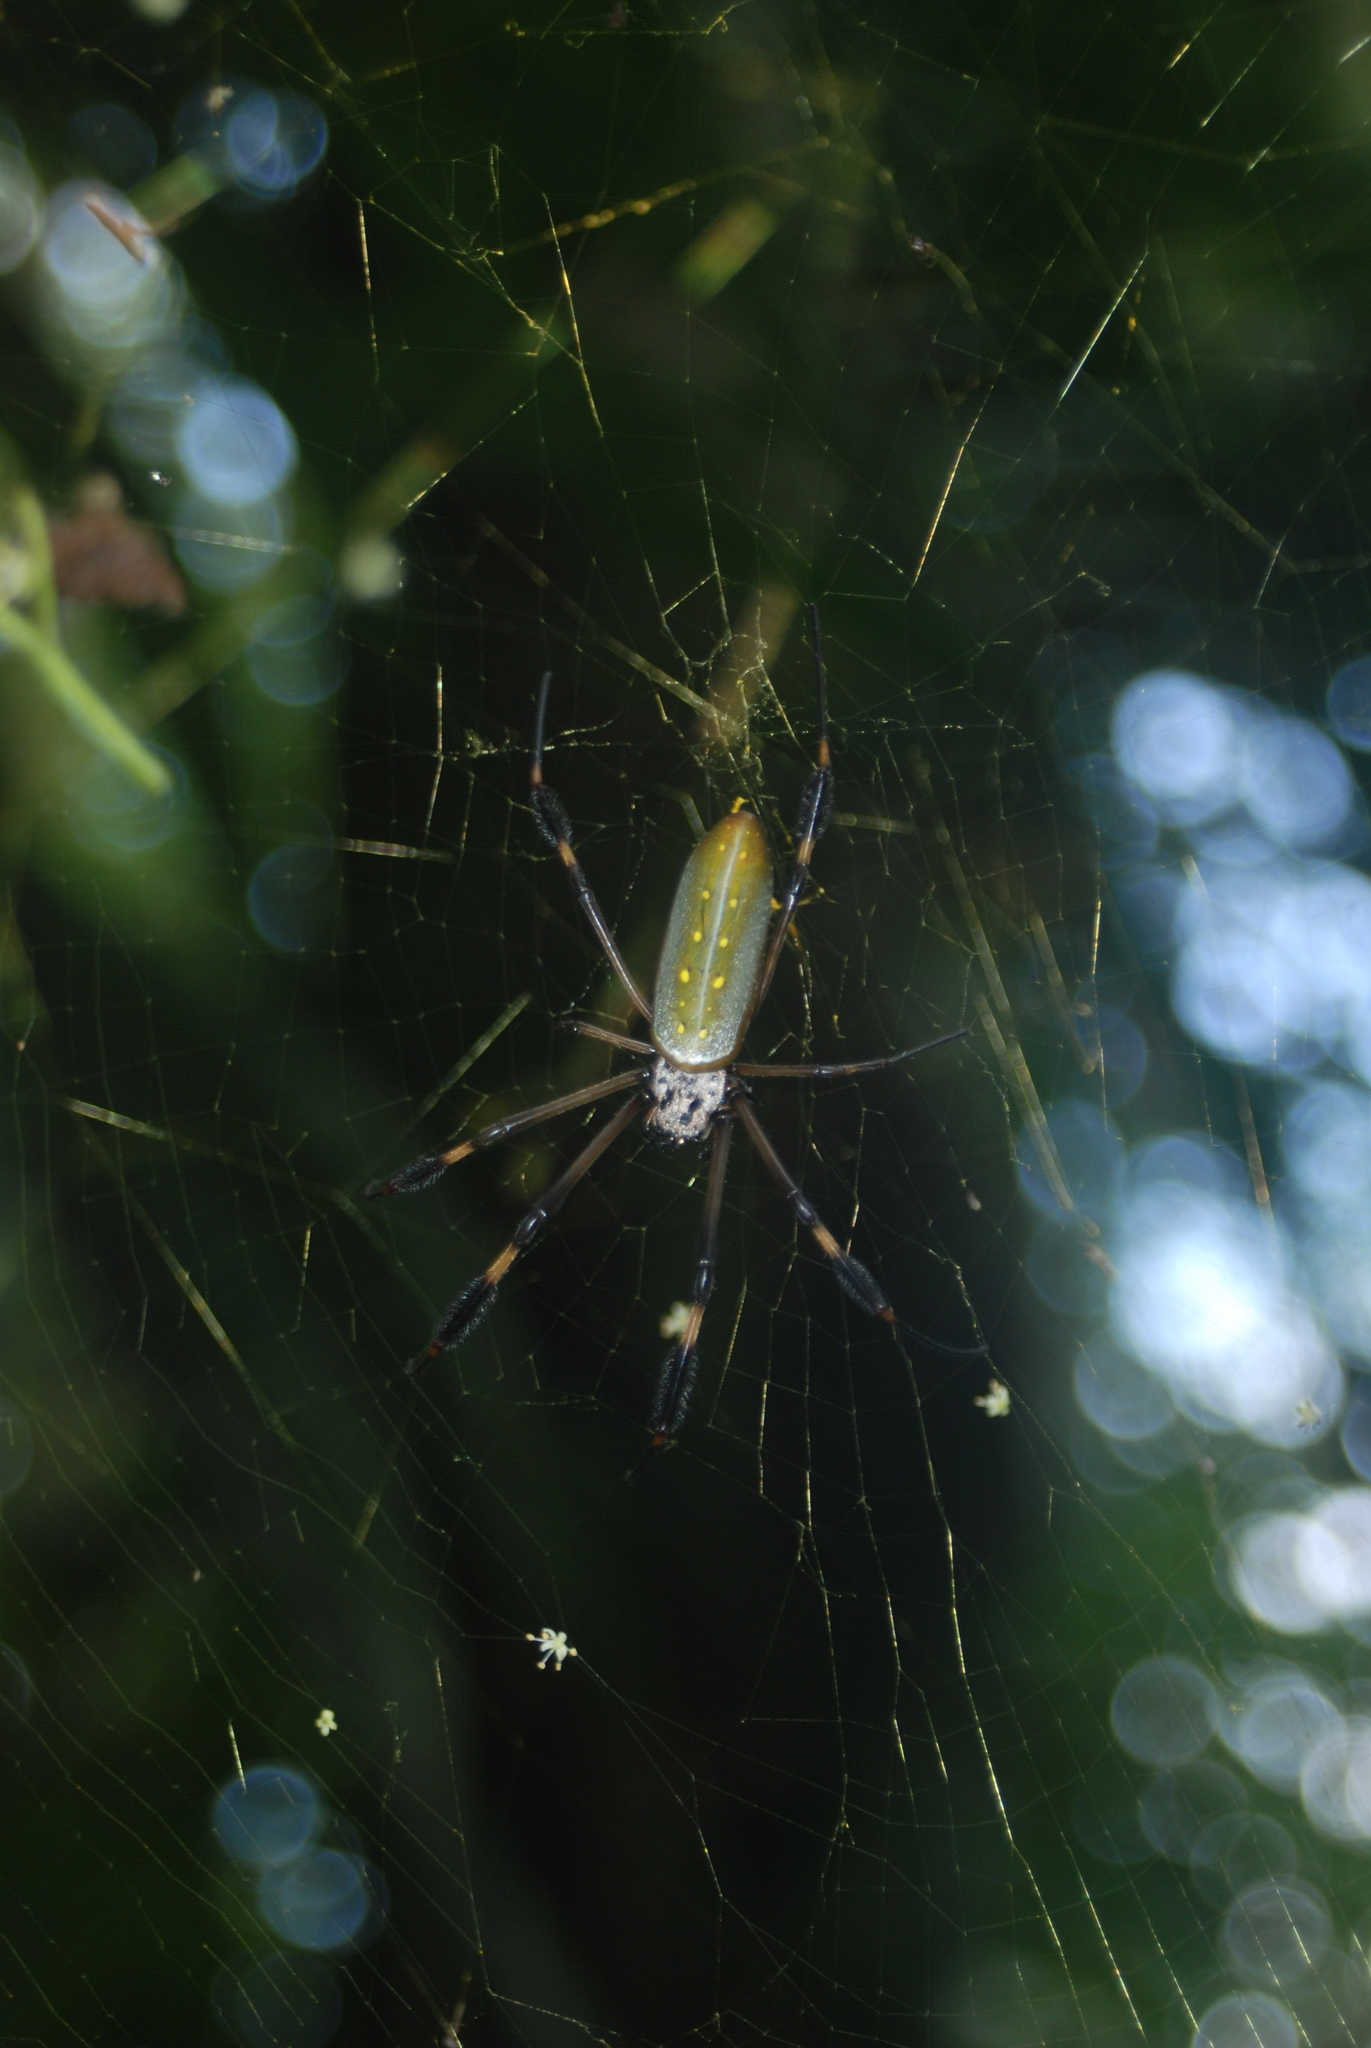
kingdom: Animalia
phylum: Arthropoda
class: Arachnida
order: Araneae
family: Araneidae
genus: Trichonephila
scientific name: Trichonephila clavipes
